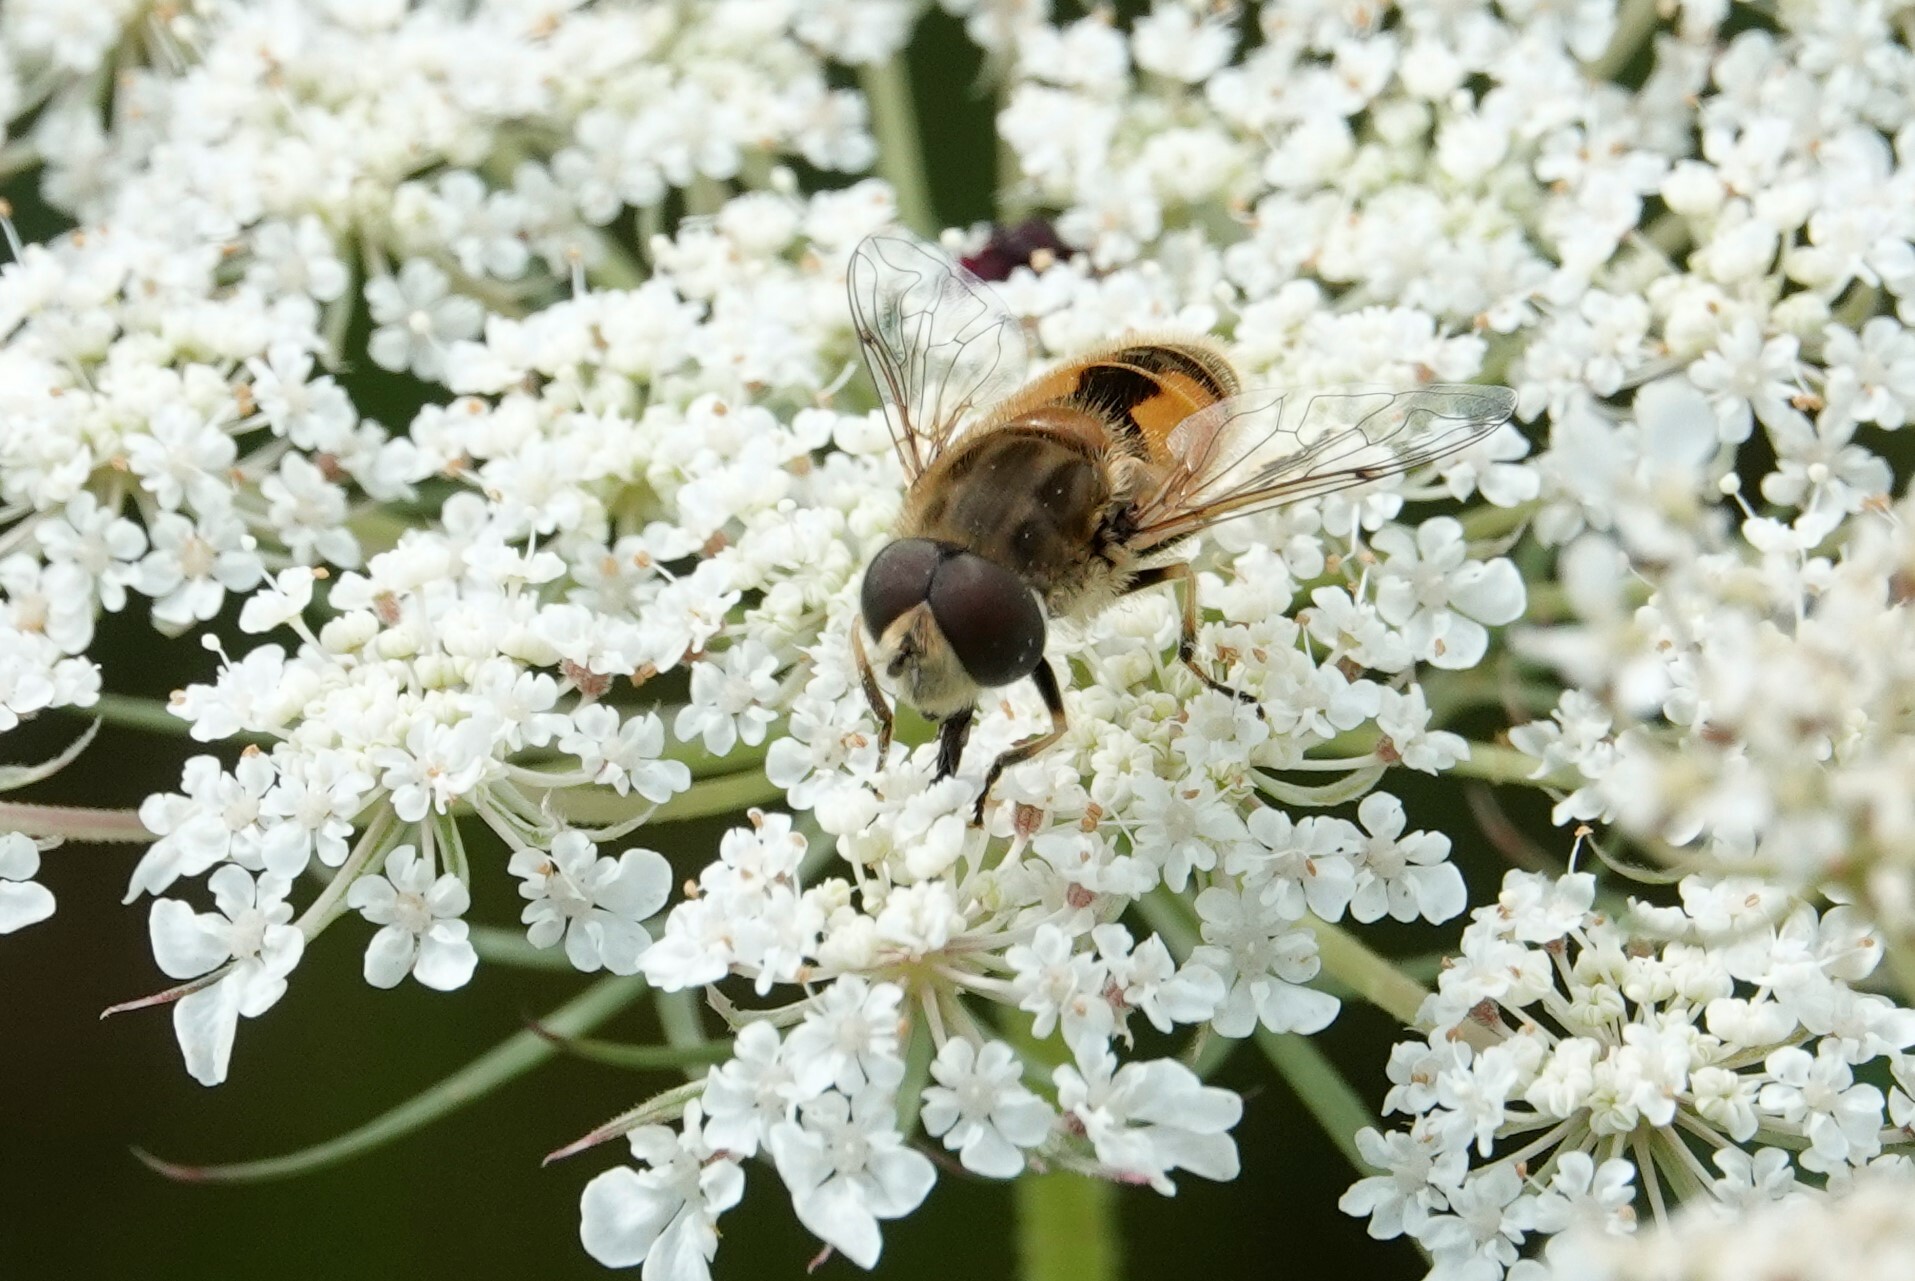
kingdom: Animalia
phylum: Arthropoda
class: Insecta
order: Diptera
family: Syrphidae
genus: Eristalis
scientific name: Eristalis arbustorum
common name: Hover fly
